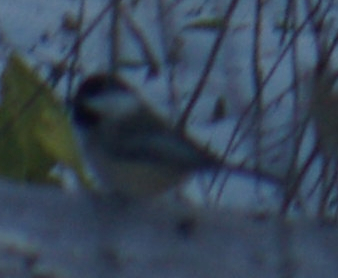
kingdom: Animalia
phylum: Chordata
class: Aves
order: Passeriformes
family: Paridae
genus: Poecile
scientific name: Poecile atricapillus
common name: Black-capped chickadee
